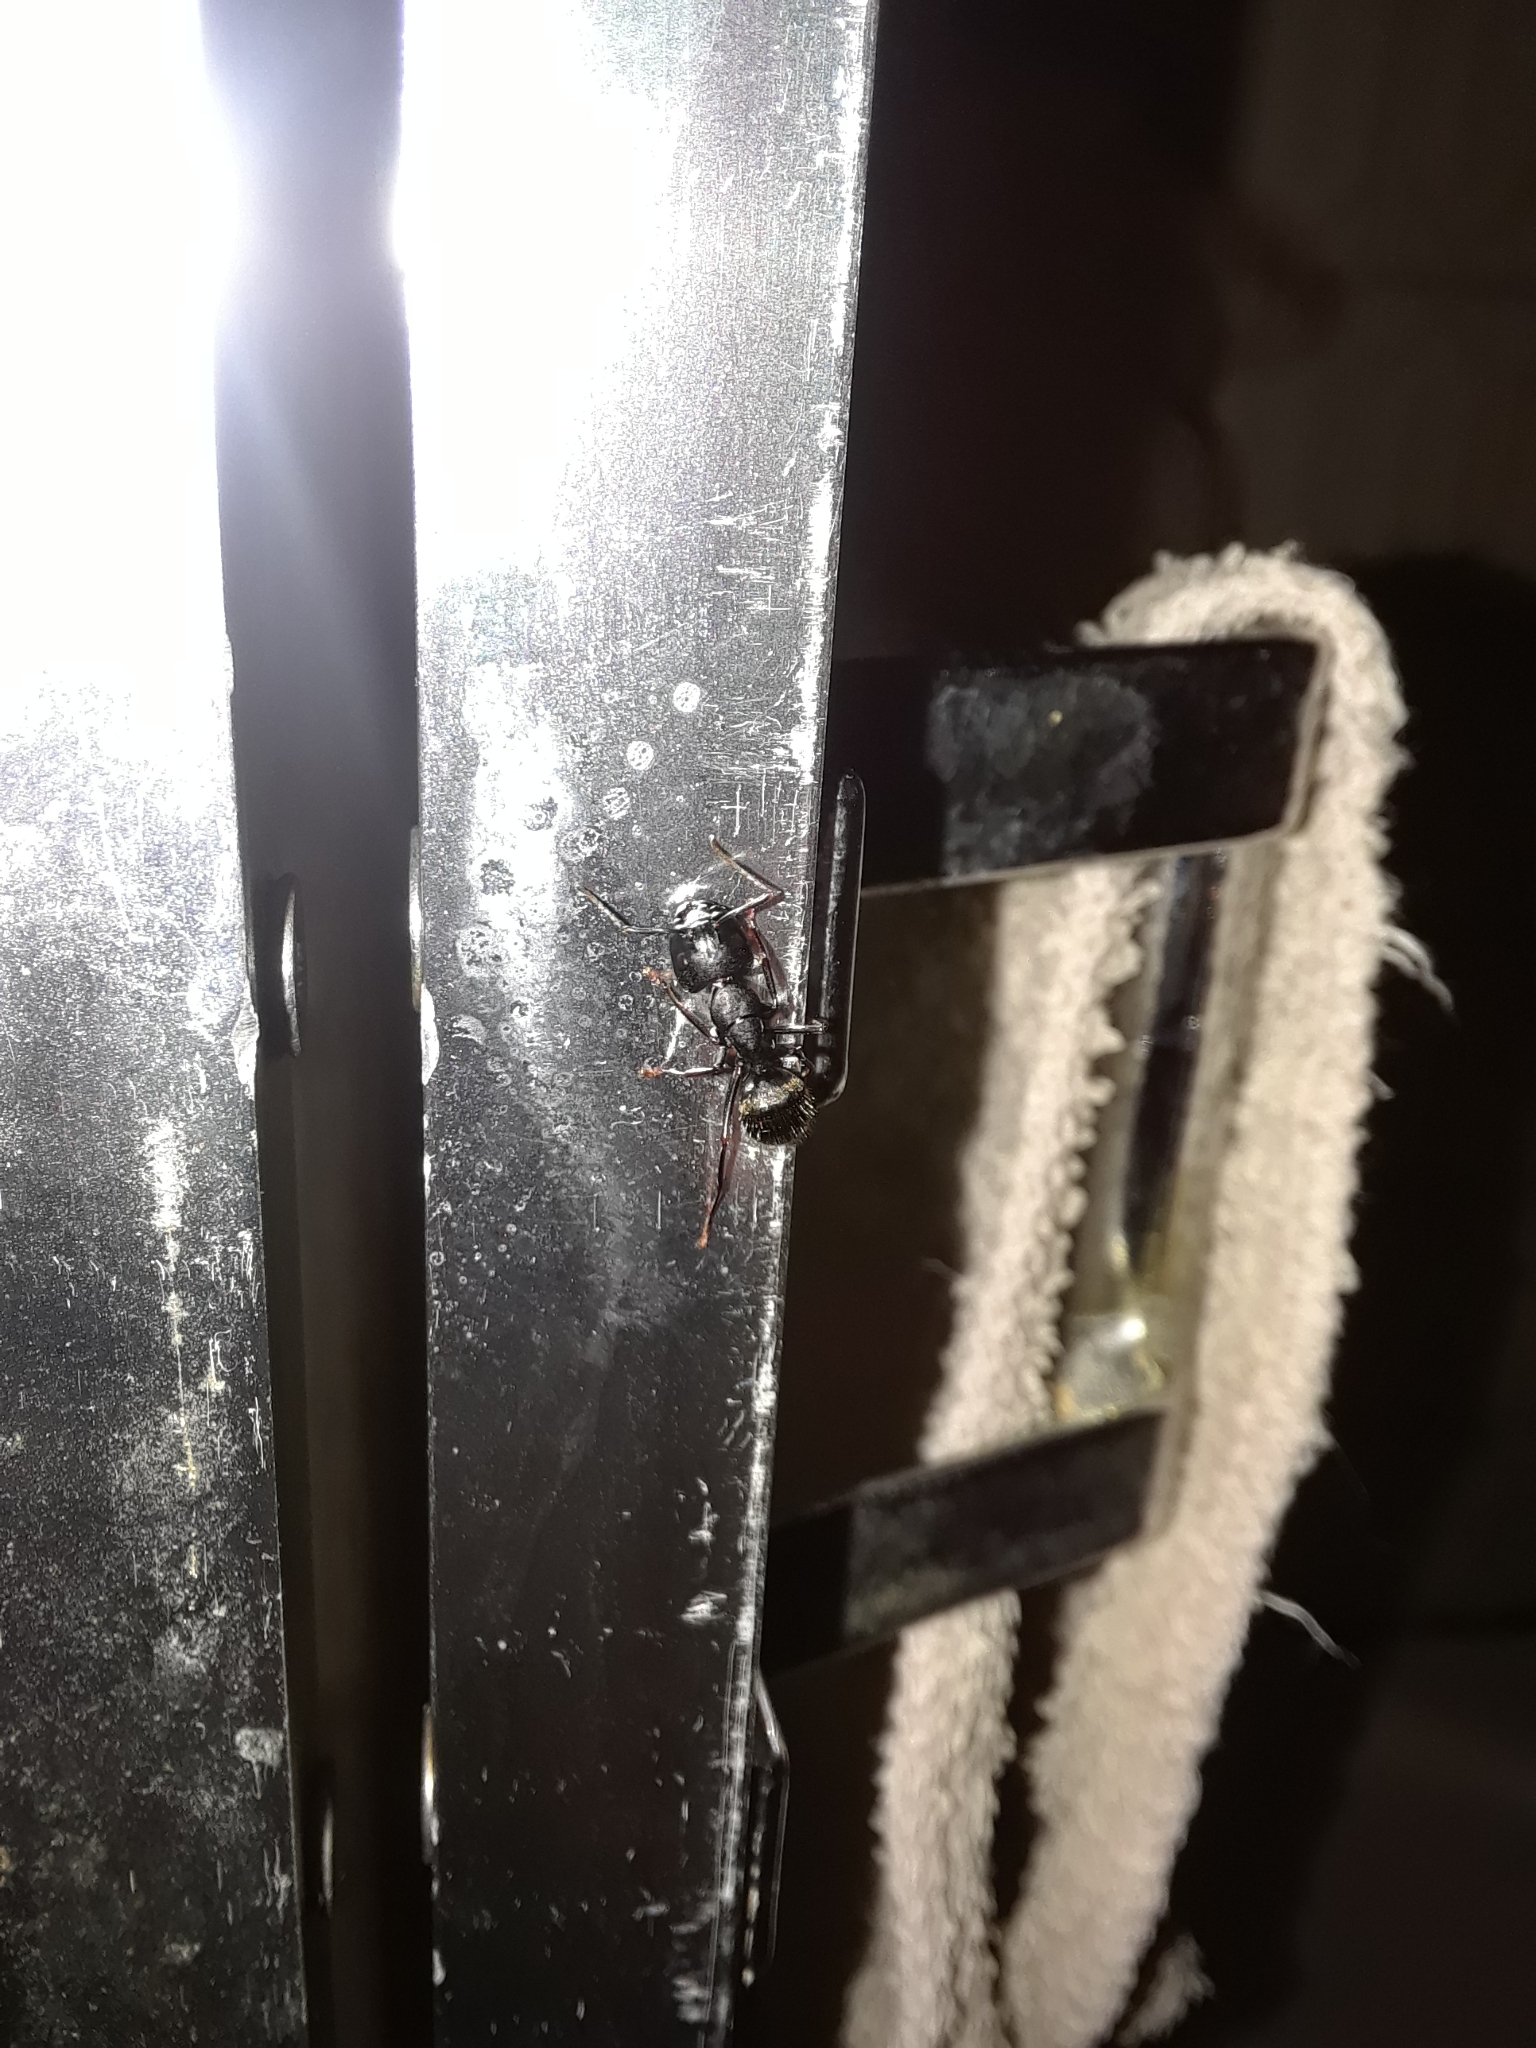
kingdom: Animalia
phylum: Arthropoda
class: Insecta
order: Hymenoptera
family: Formicidae
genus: Camponotus
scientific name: Camponotus pennsylvanicus
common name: Black carpenter ant
